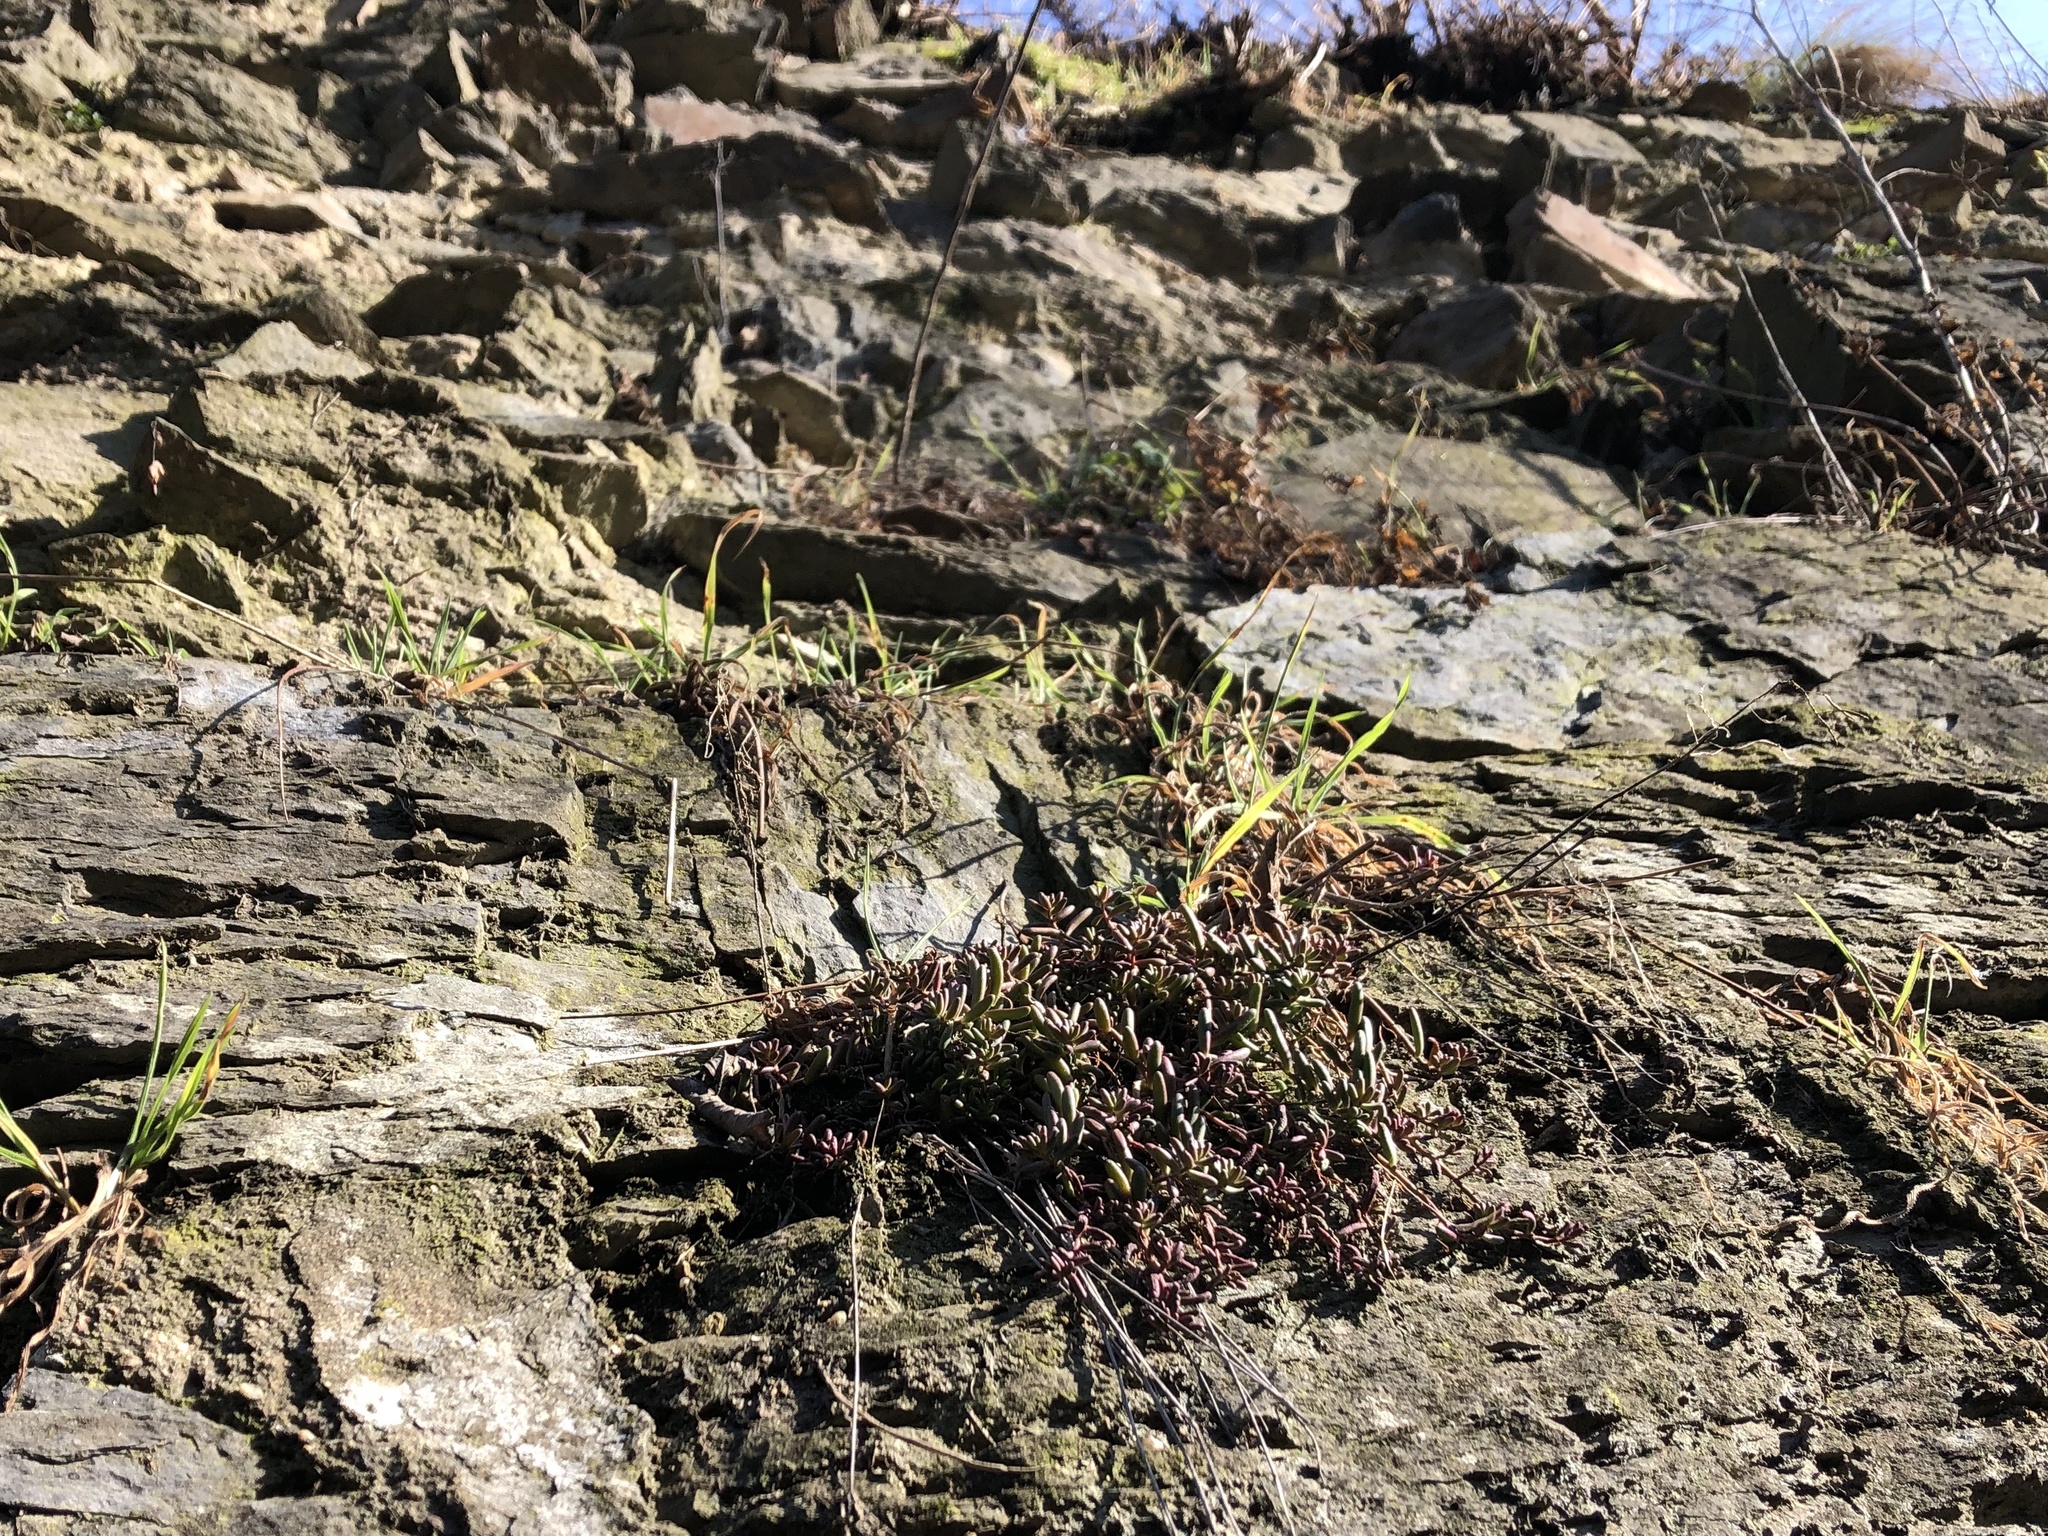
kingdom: Plantae
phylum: Tracheophyta
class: Magnoliopsida
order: Saxifragales
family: Crassulaceae
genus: Sedum
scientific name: Sedum album
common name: White stonecrop
